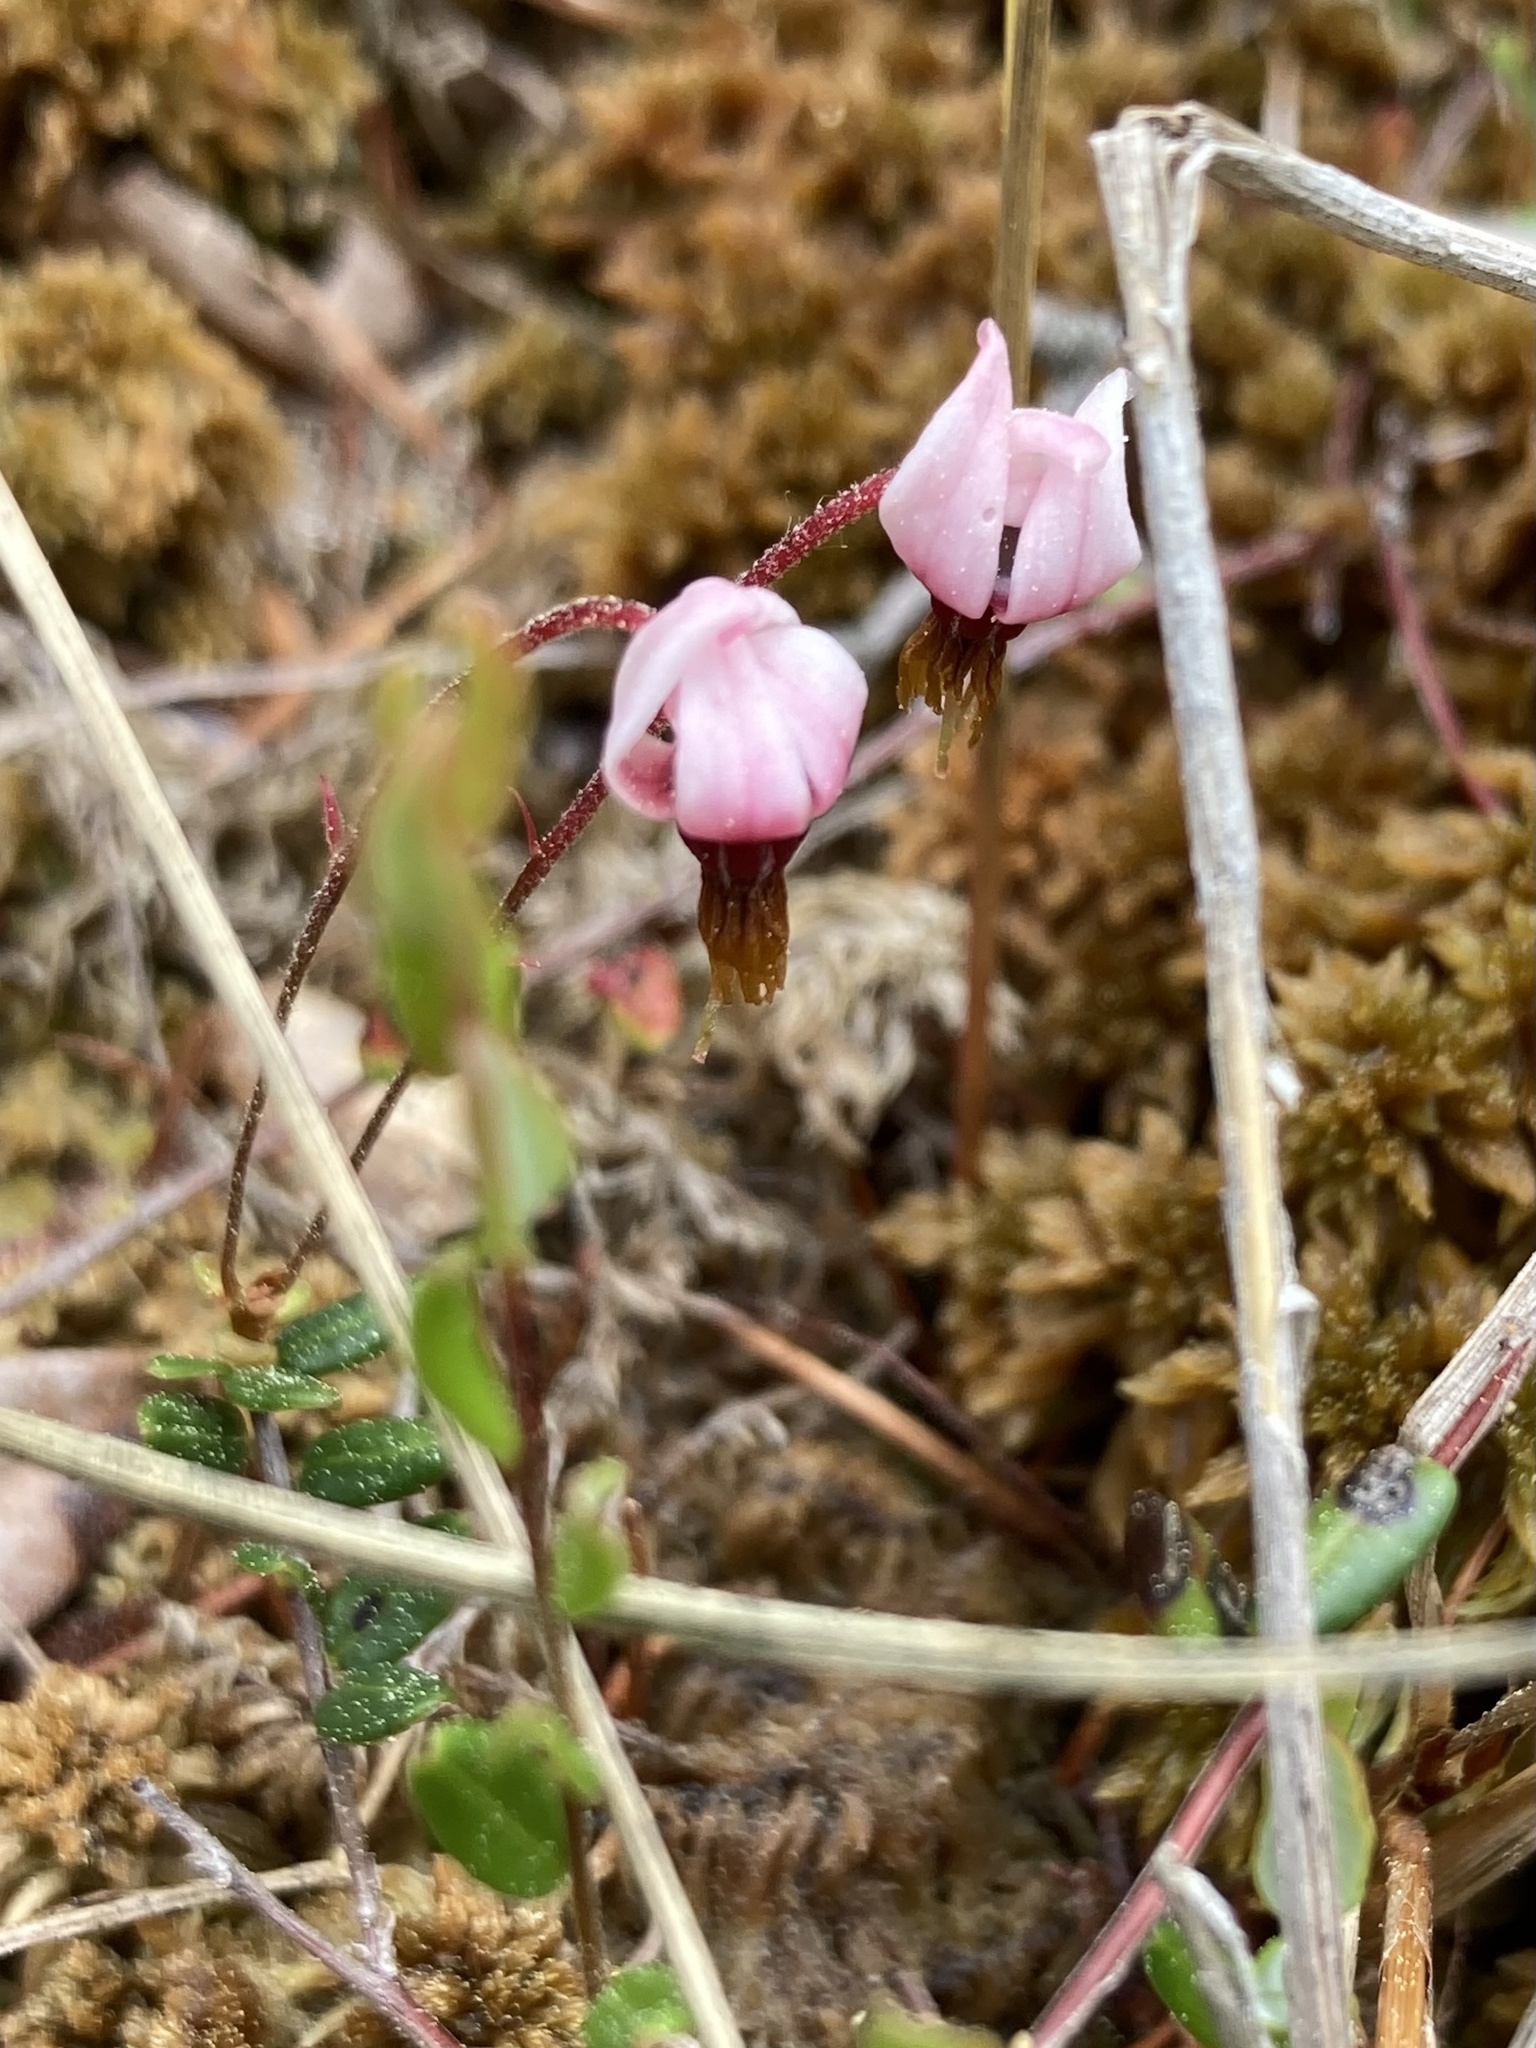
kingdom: Plantae
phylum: Tracheophyta
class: Magnoliopsida
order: Ericales
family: Ericaceae
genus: Vaccinium
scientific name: Vaccinium oxycoccos
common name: Cranberry
